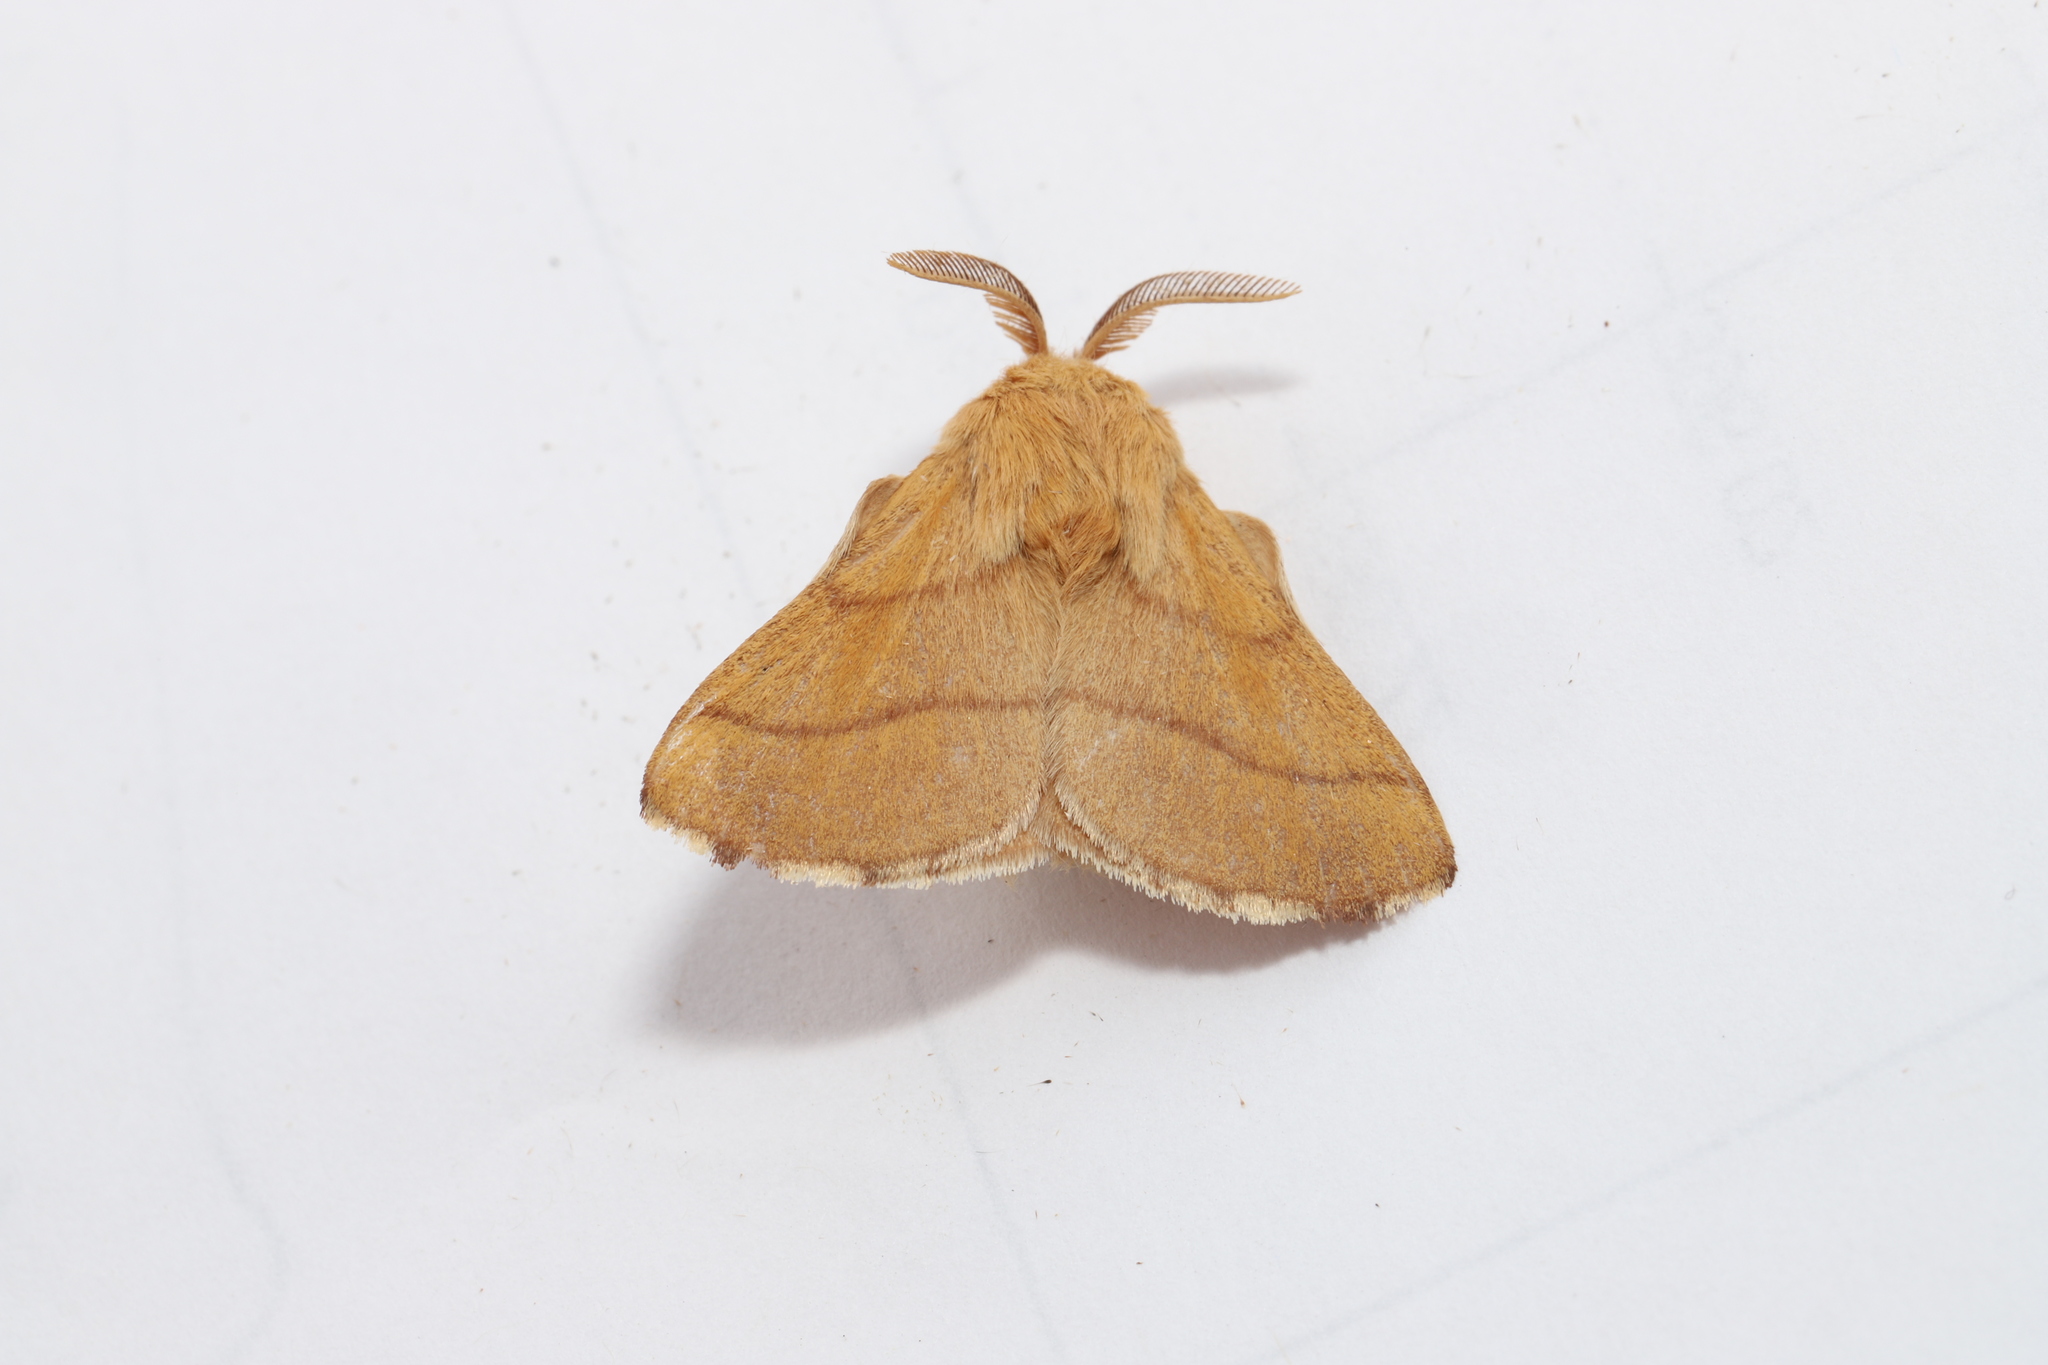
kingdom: Animalia
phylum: Arthropoda
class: Insecta
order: Lepidoptera
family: Lasiocampidae
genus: Malacosoma
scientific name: Malacosoma disstria
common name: Forest tent caterpillar
